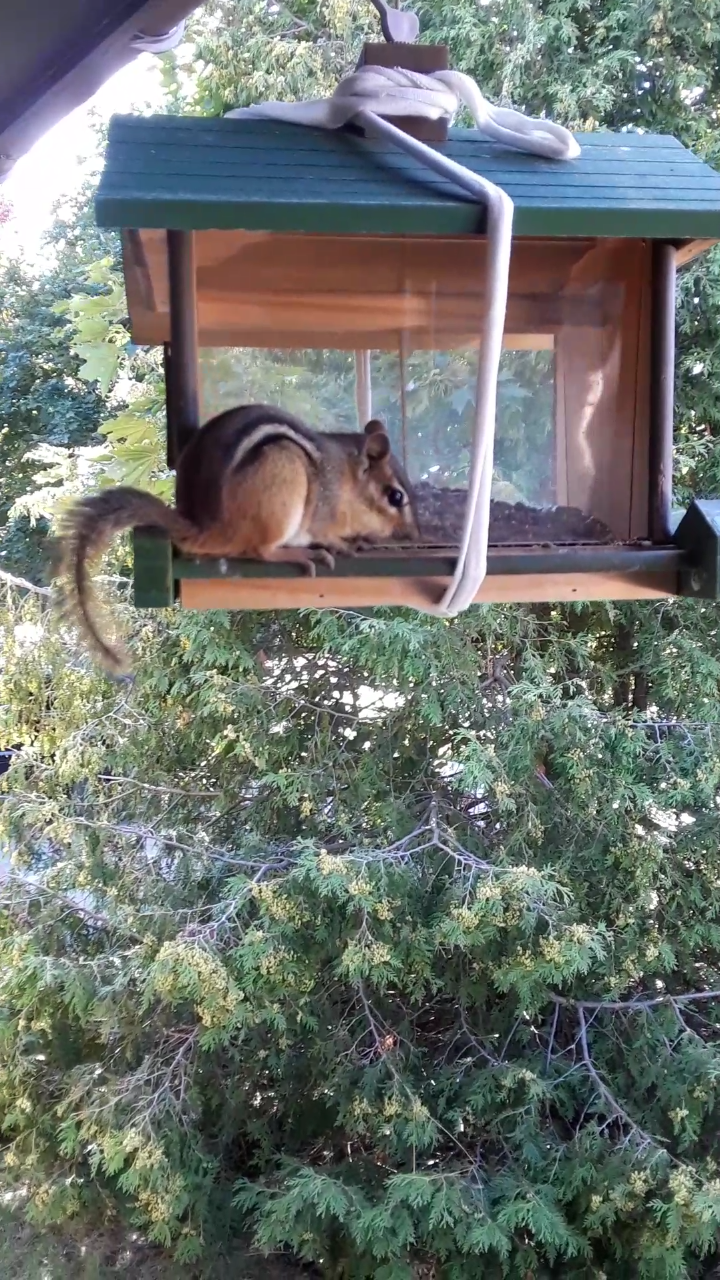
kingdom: Animalia
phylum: Chordata
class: Mammalia
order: Rodentia
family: Sciuridae
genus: Tamias
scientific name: Tamias striatus
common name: Eastern chipmunk
